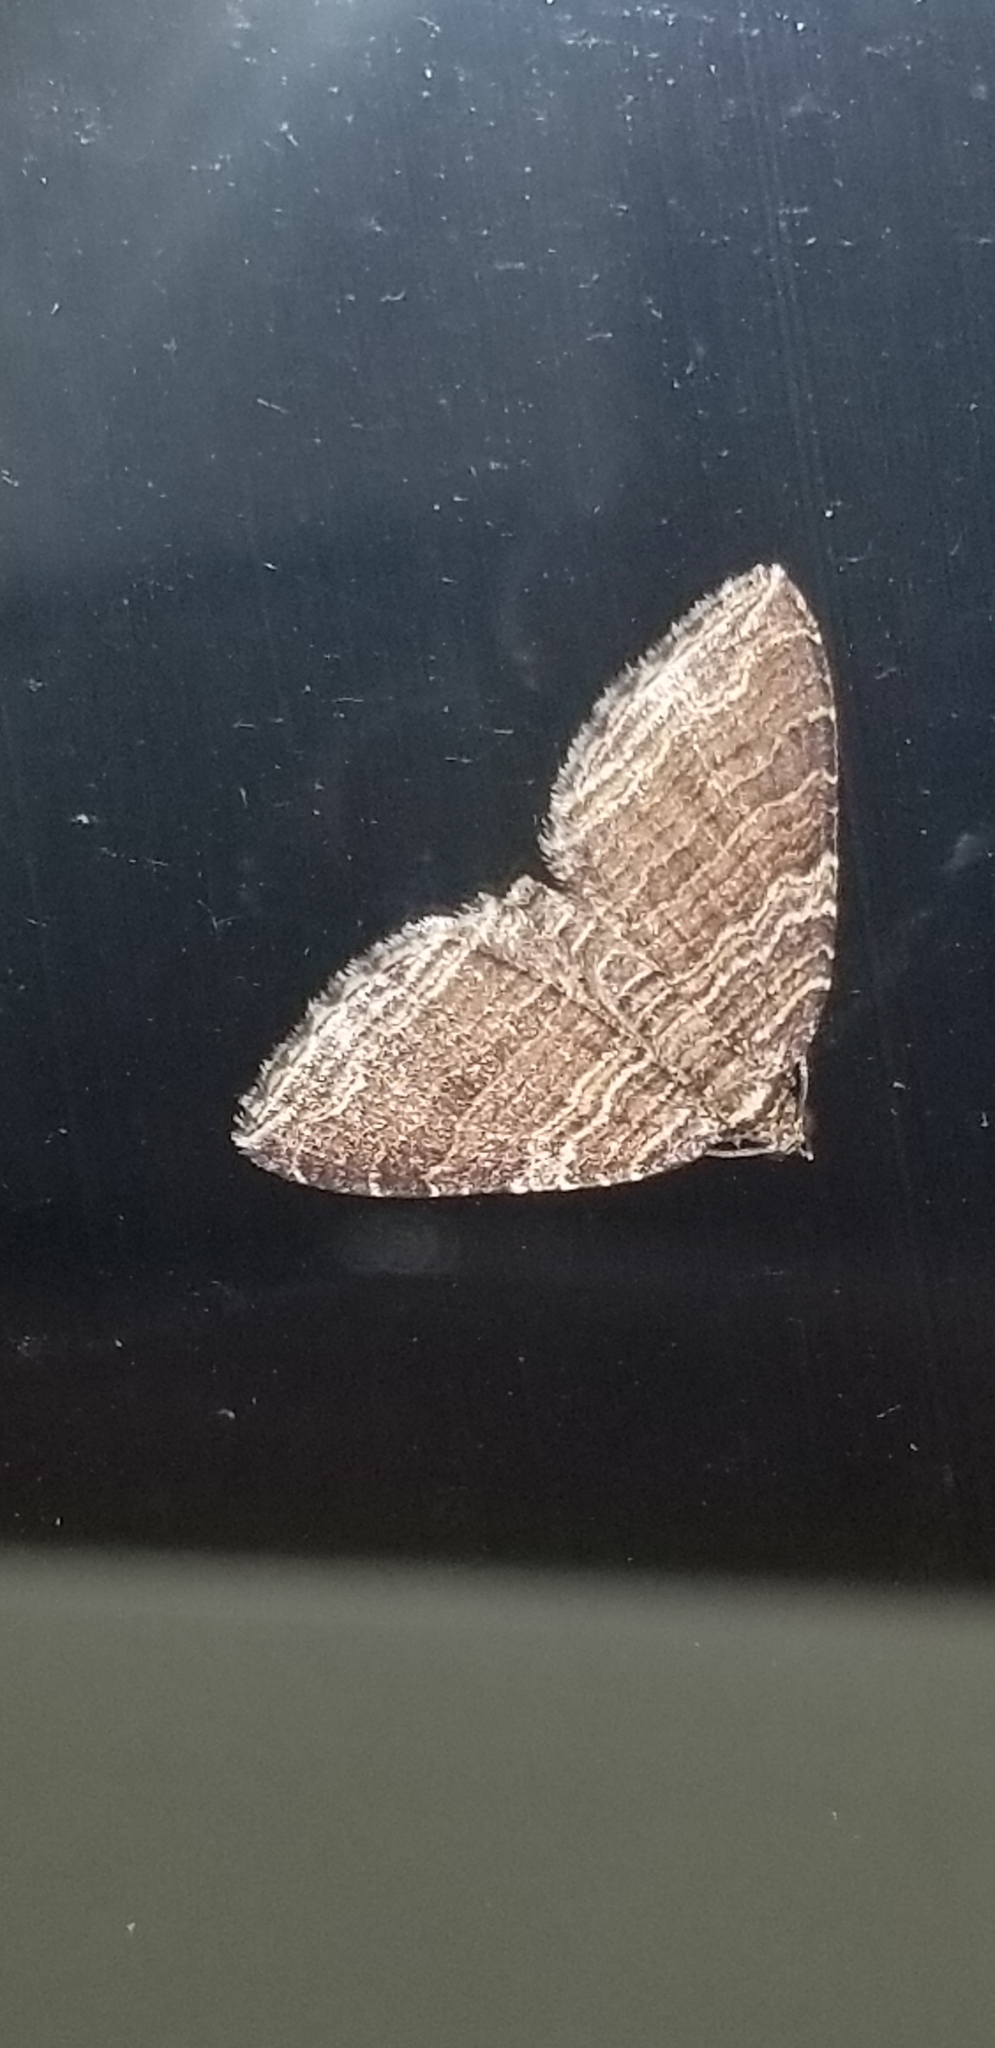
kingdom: Animalia
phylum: Arthropoda
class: Insecta
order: Lepidoptera
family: Geometridae
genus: Anticlea
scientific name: Anticlea multiferata
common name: Many-lined carpet
